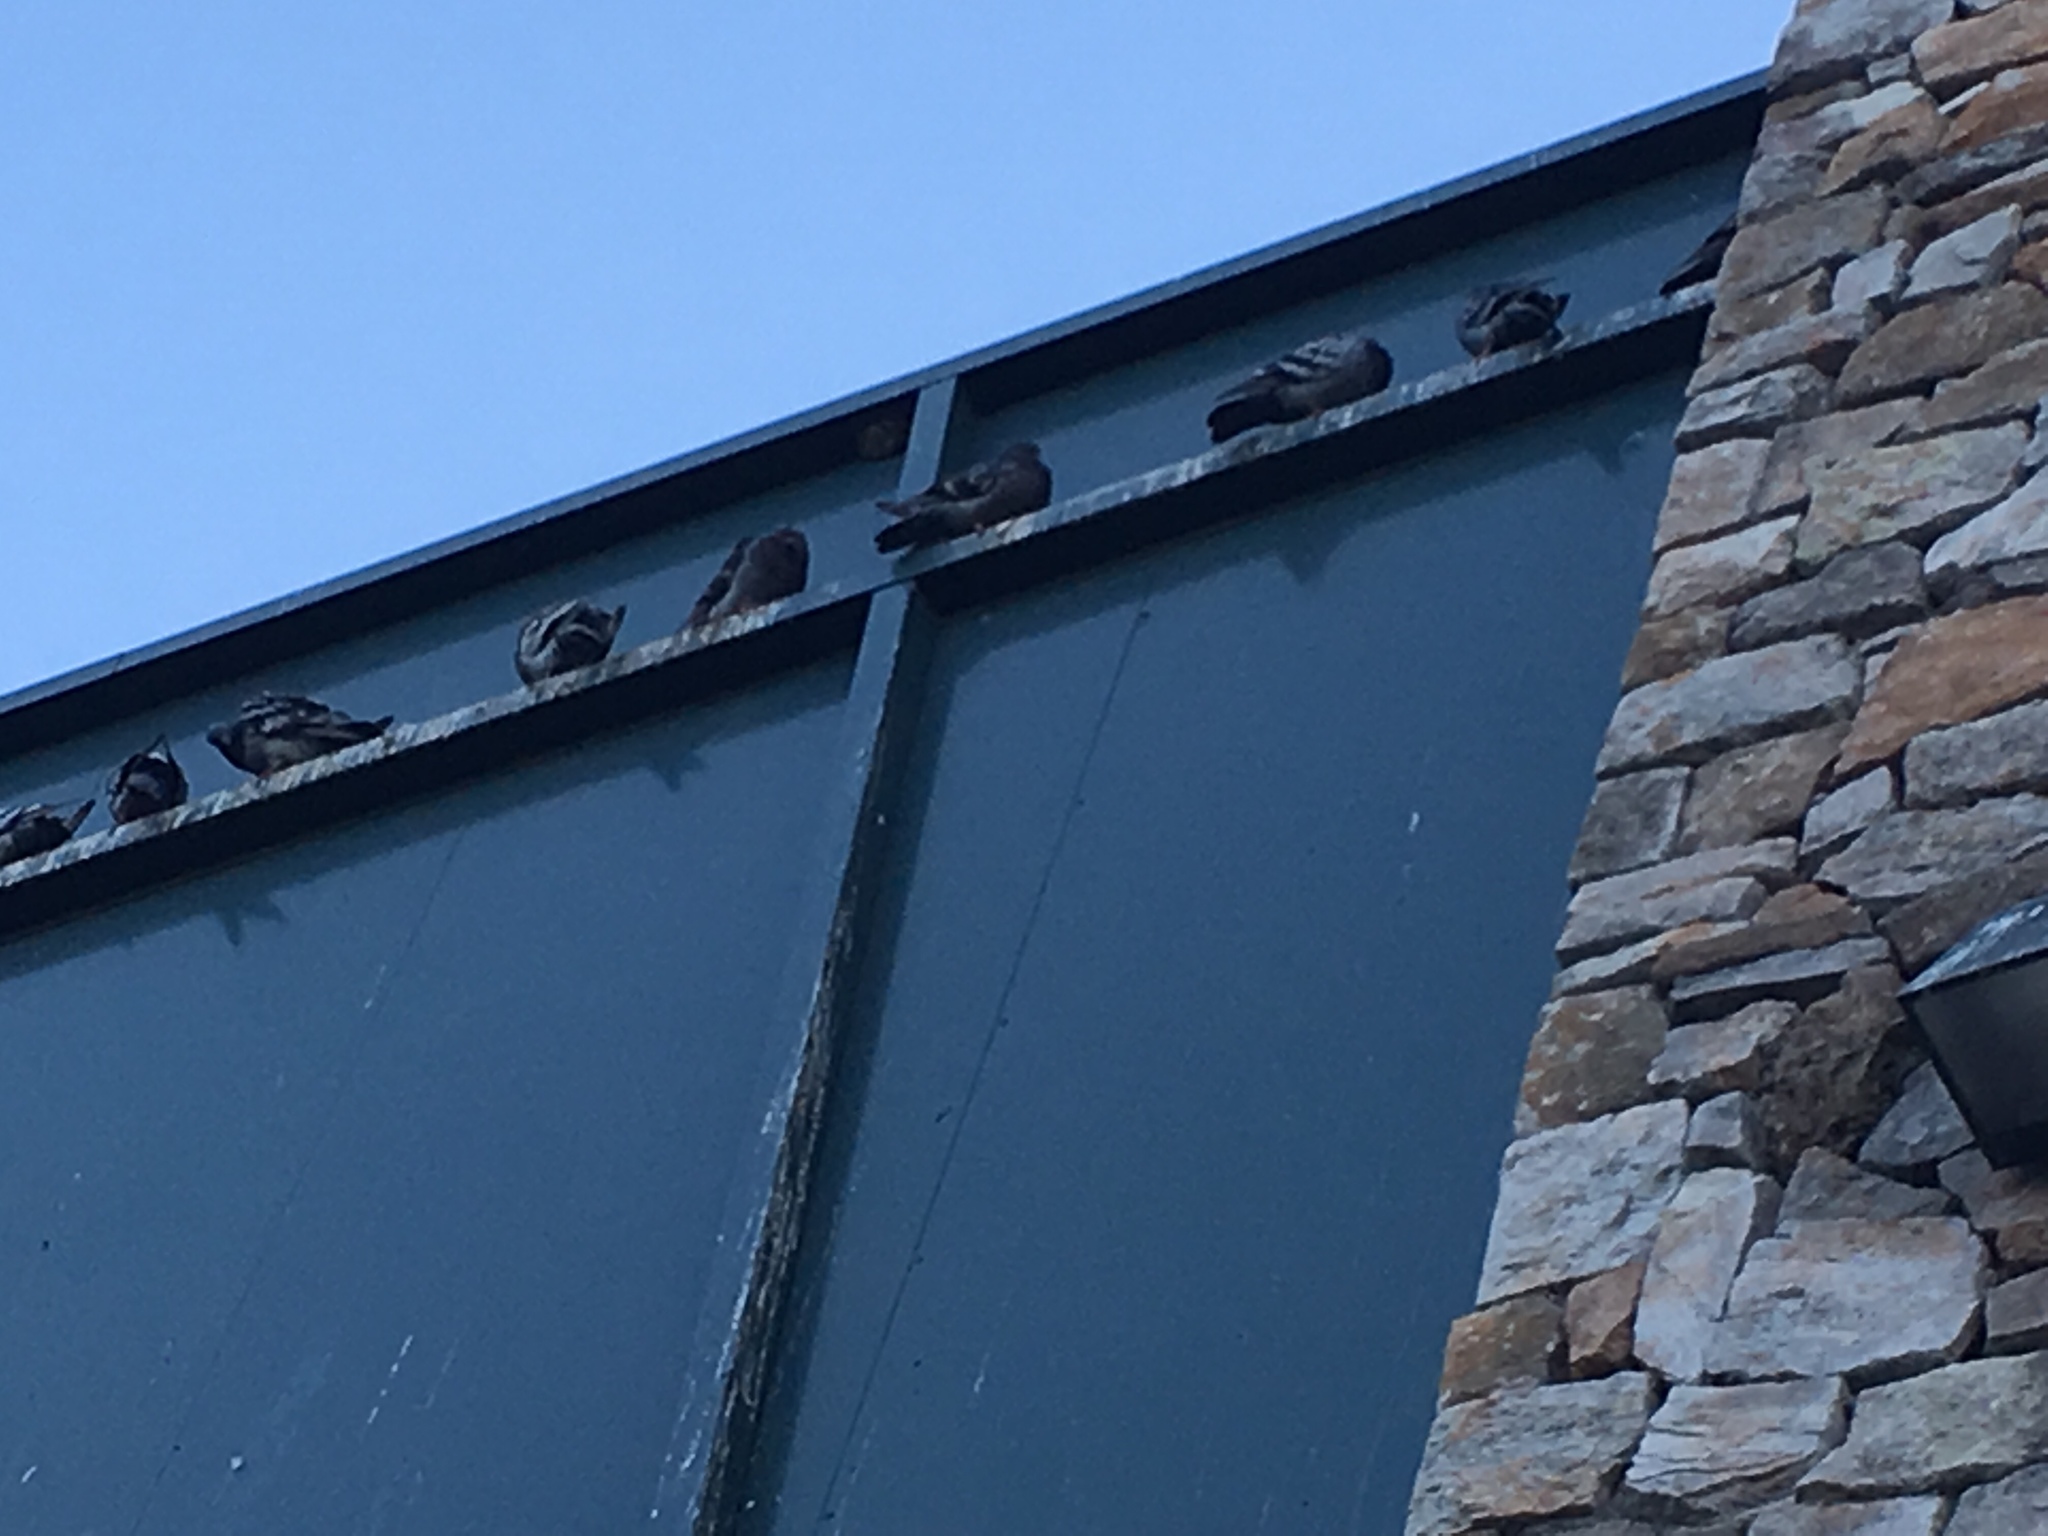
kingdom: Animalia
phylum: Chordata
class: Aves
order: Columbiformes
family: Columbidae
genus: Columba
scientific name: Columba livia
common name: Rock pigeon
